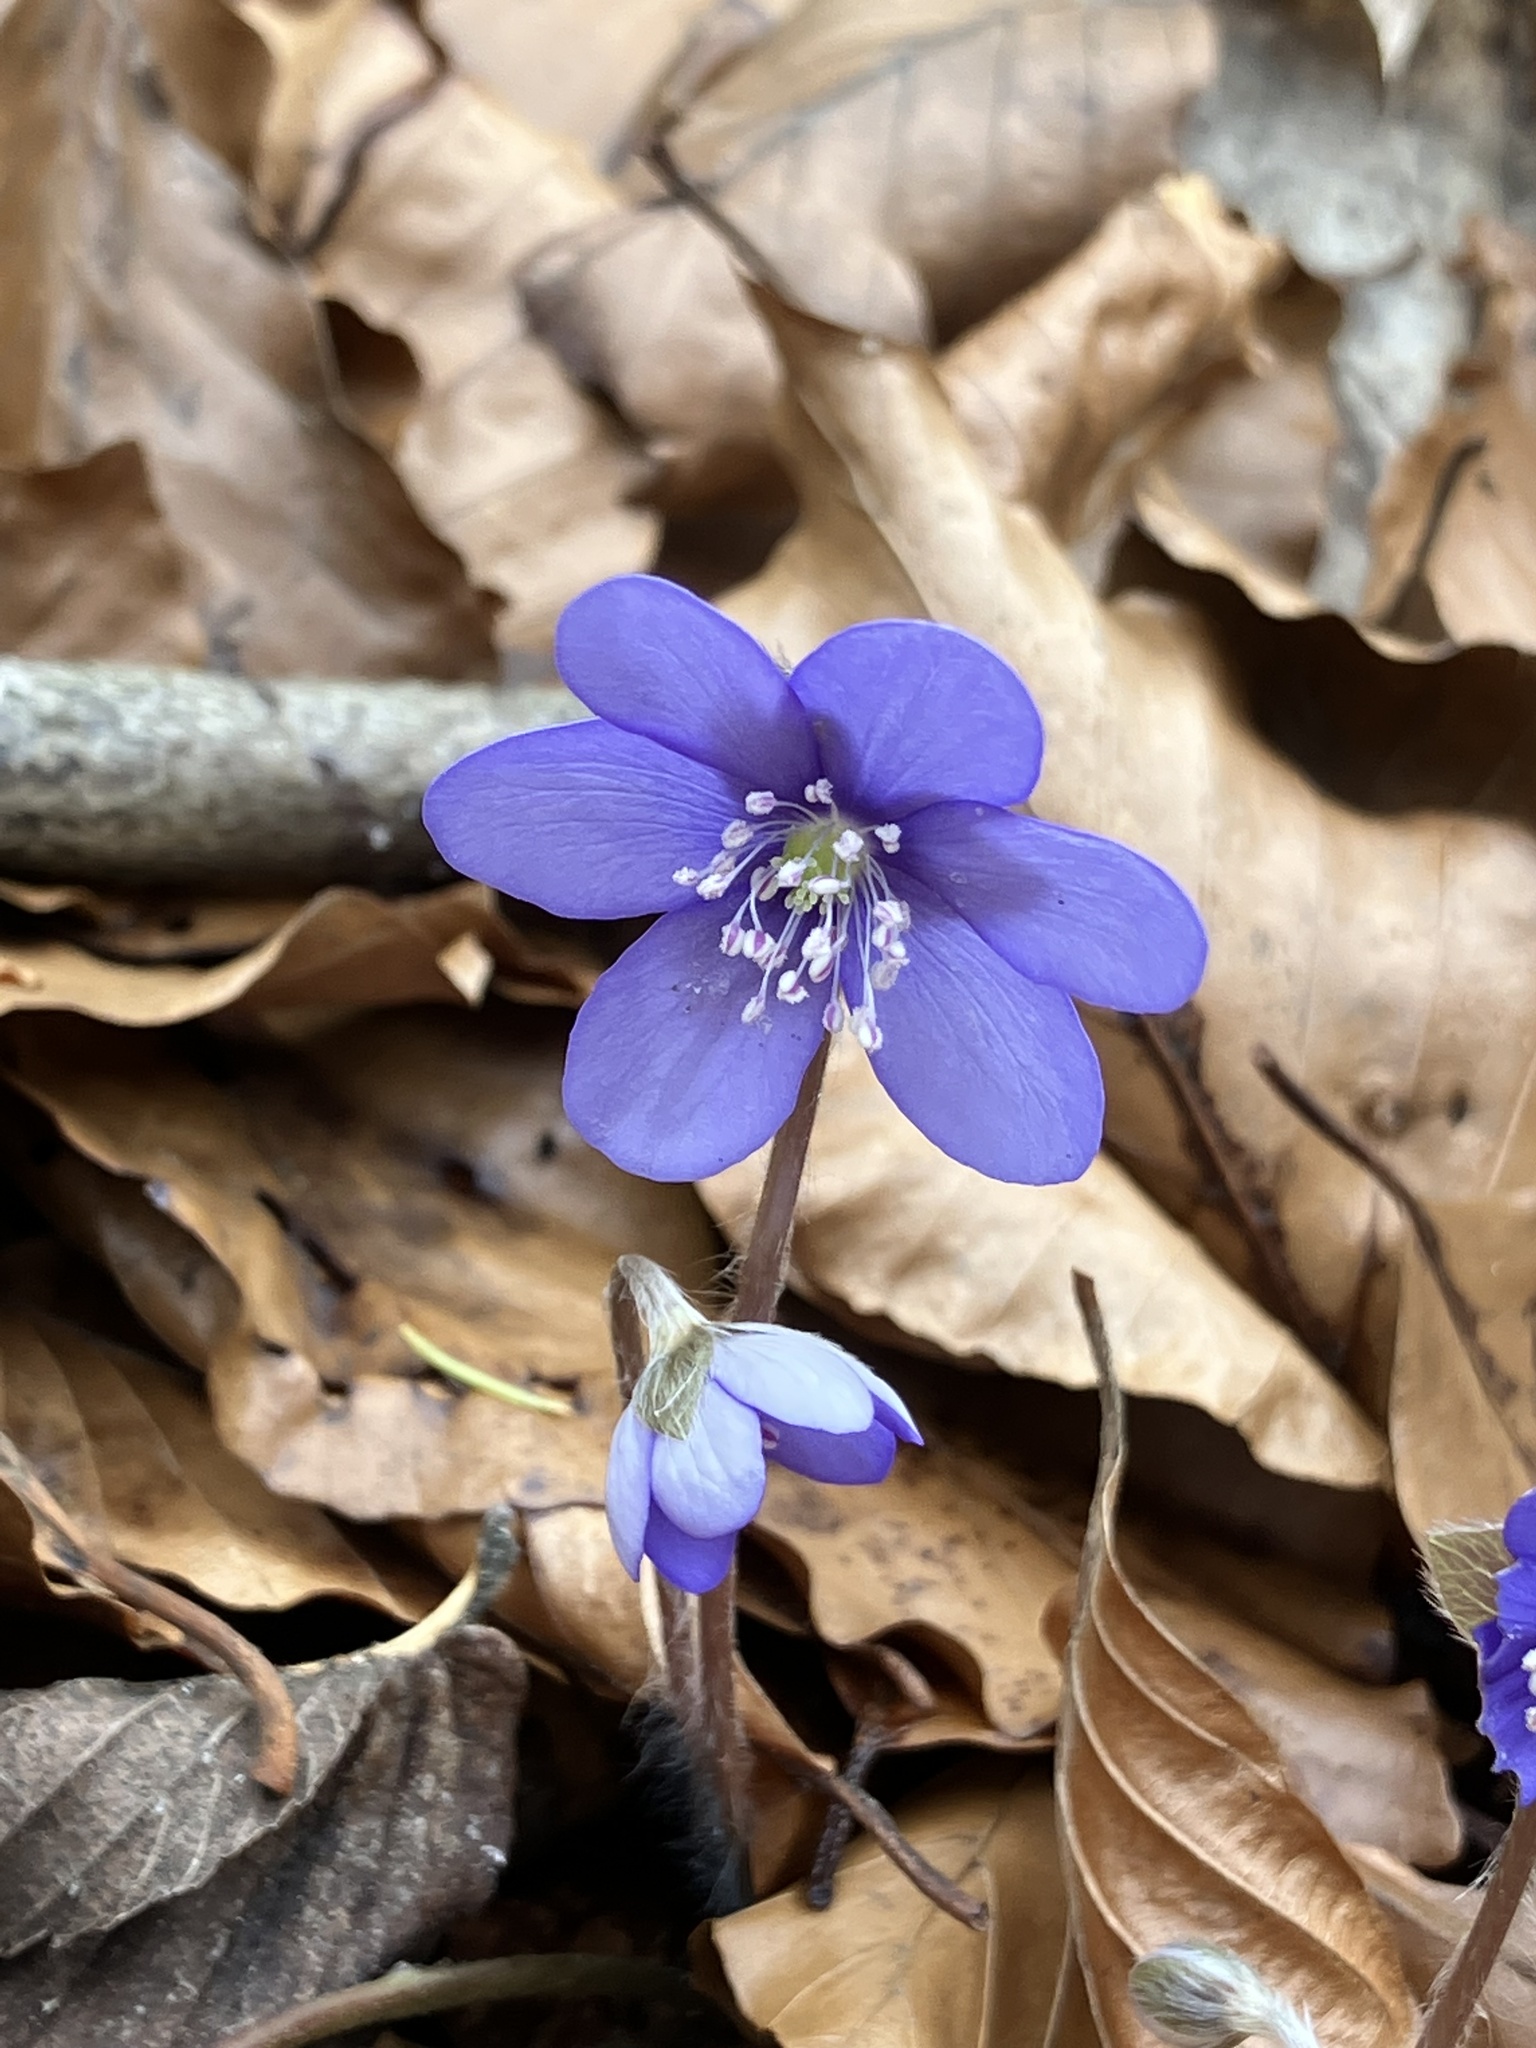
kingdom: Plantae
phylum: Tracheophyta
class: Magnoliopsida
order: Ranunculales
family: Ranunculaceae
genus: Hepatica
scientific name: Hepatica nobilis
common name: Liverleaf
